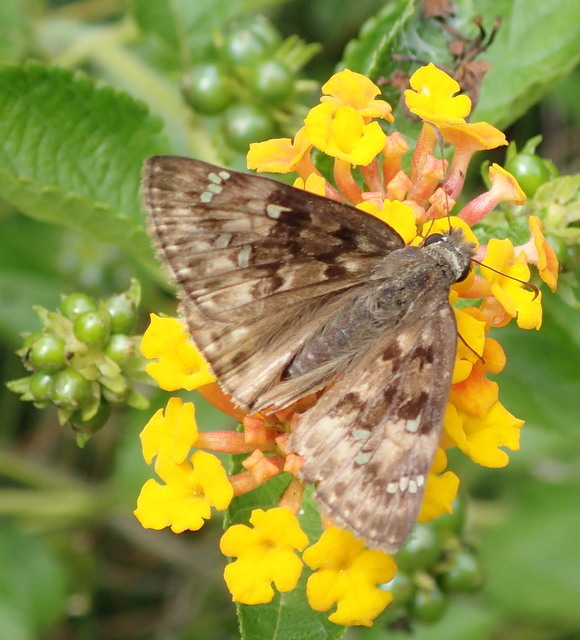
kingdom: Animalia
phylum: Arthropoda
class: Insecta
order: Lepidoptera
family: Hesperiidae
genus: Erynnis
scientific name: Erynnis horatius
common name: Horace's duskywing
